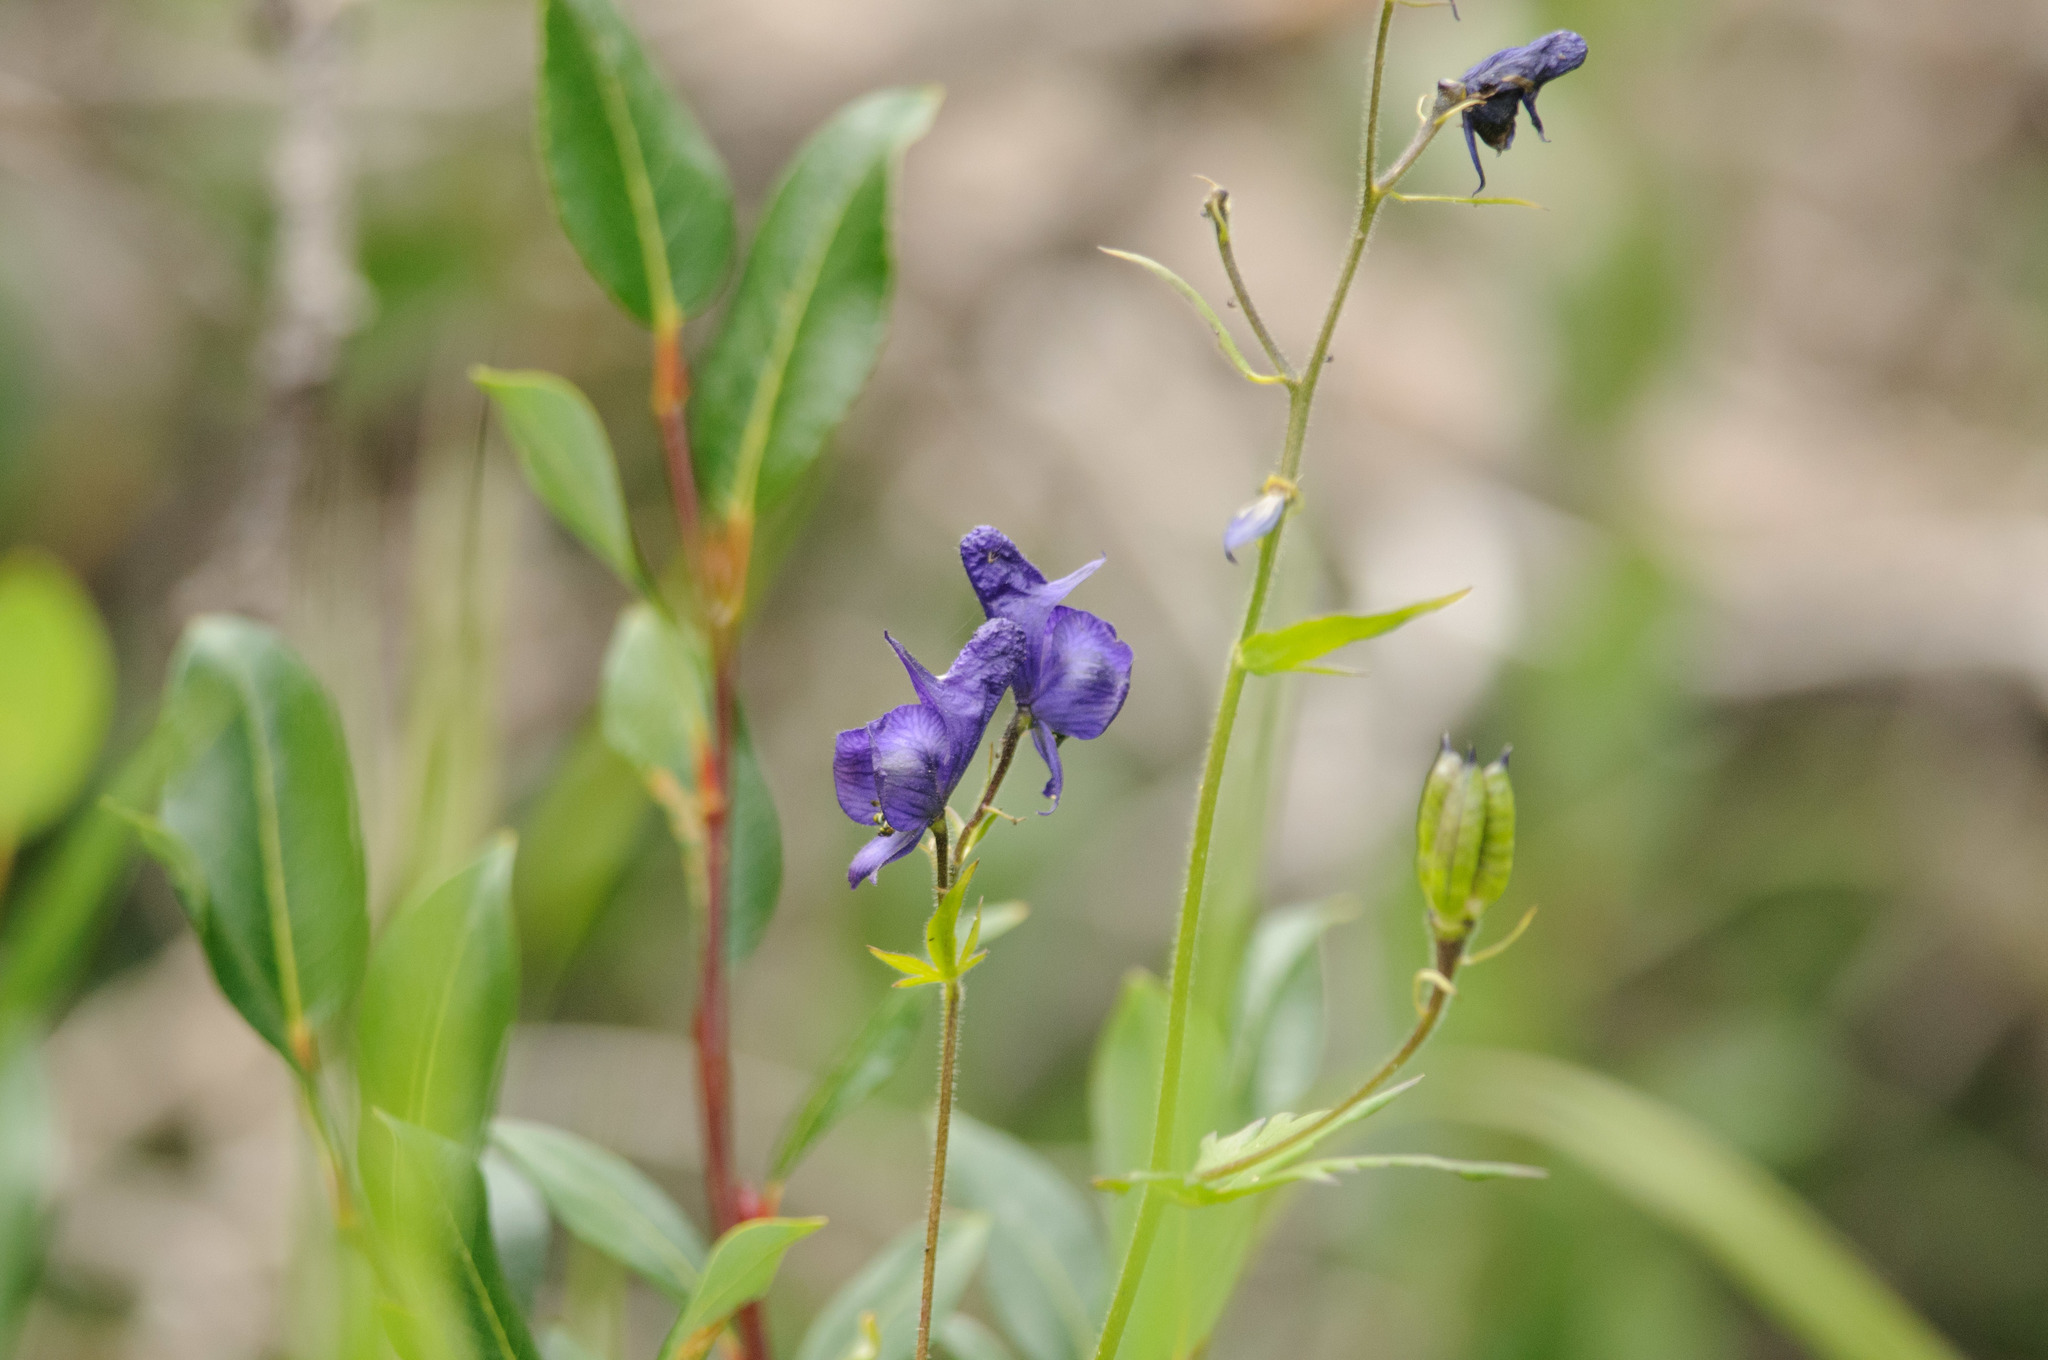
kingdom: Plantae
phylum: Tracheophyta
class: Magnoliopsida
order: Ranunculales
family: Ranunculaceae
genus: Aconitum
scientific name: Aconitum columbianum
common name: Columbia aconite
